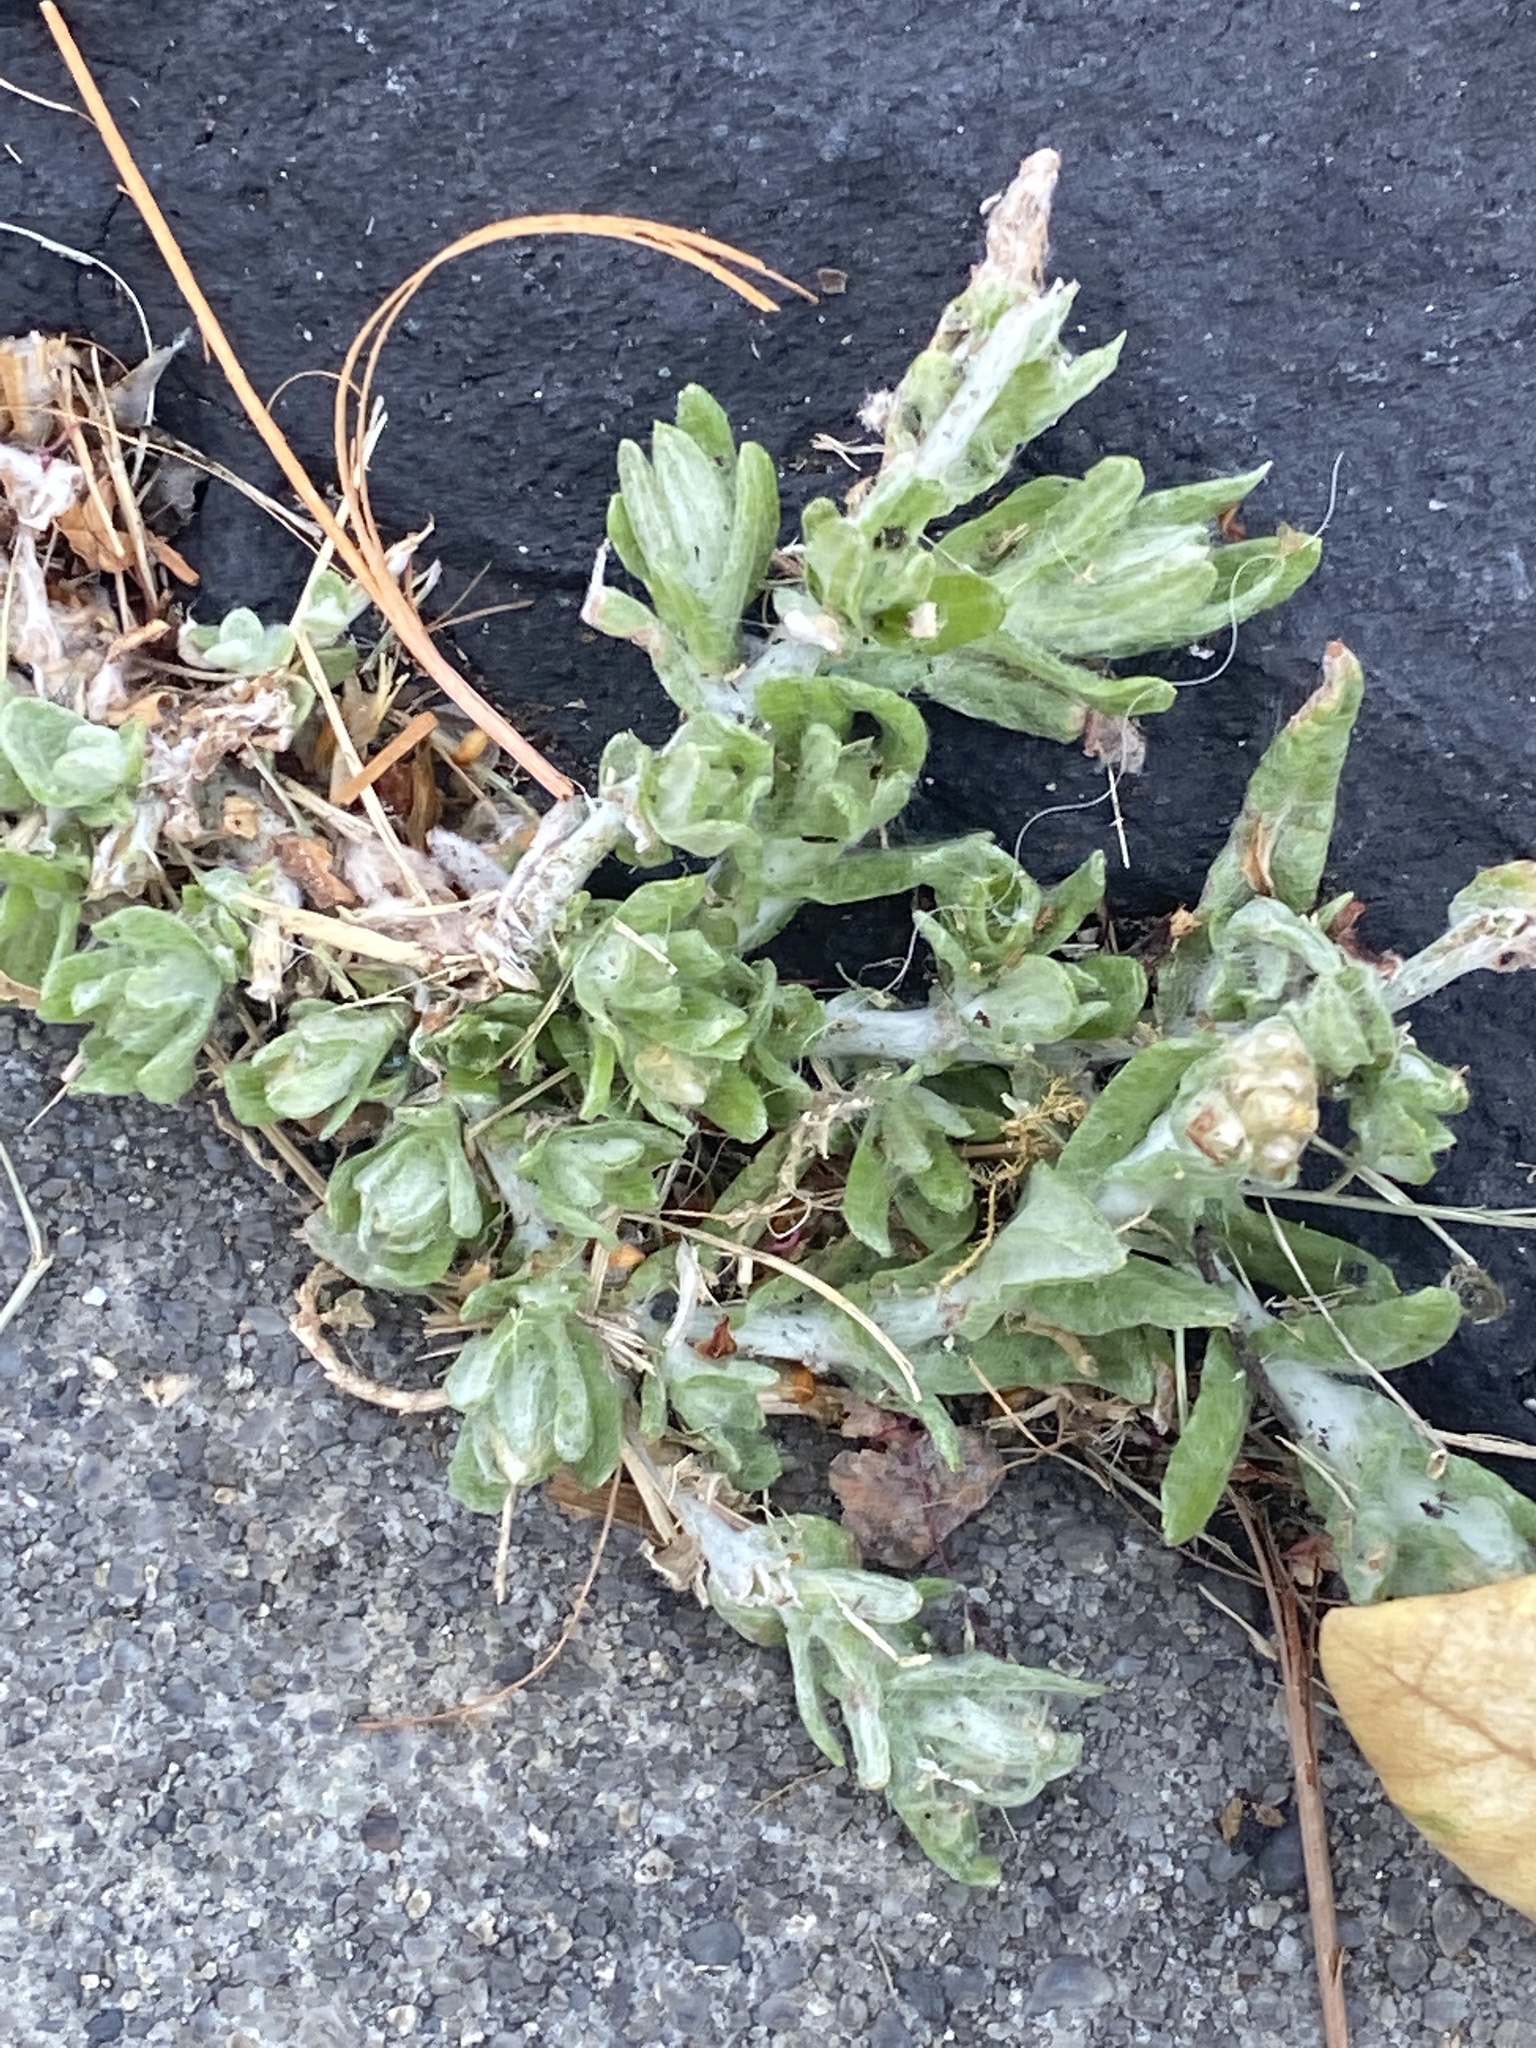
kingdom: Plantae
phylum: Tracheophyta
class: Magnoliopsida
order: Asterales
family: Asteraceae
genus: Helichrysum
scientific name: Helichrysum luteoalbum
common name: Daisy
